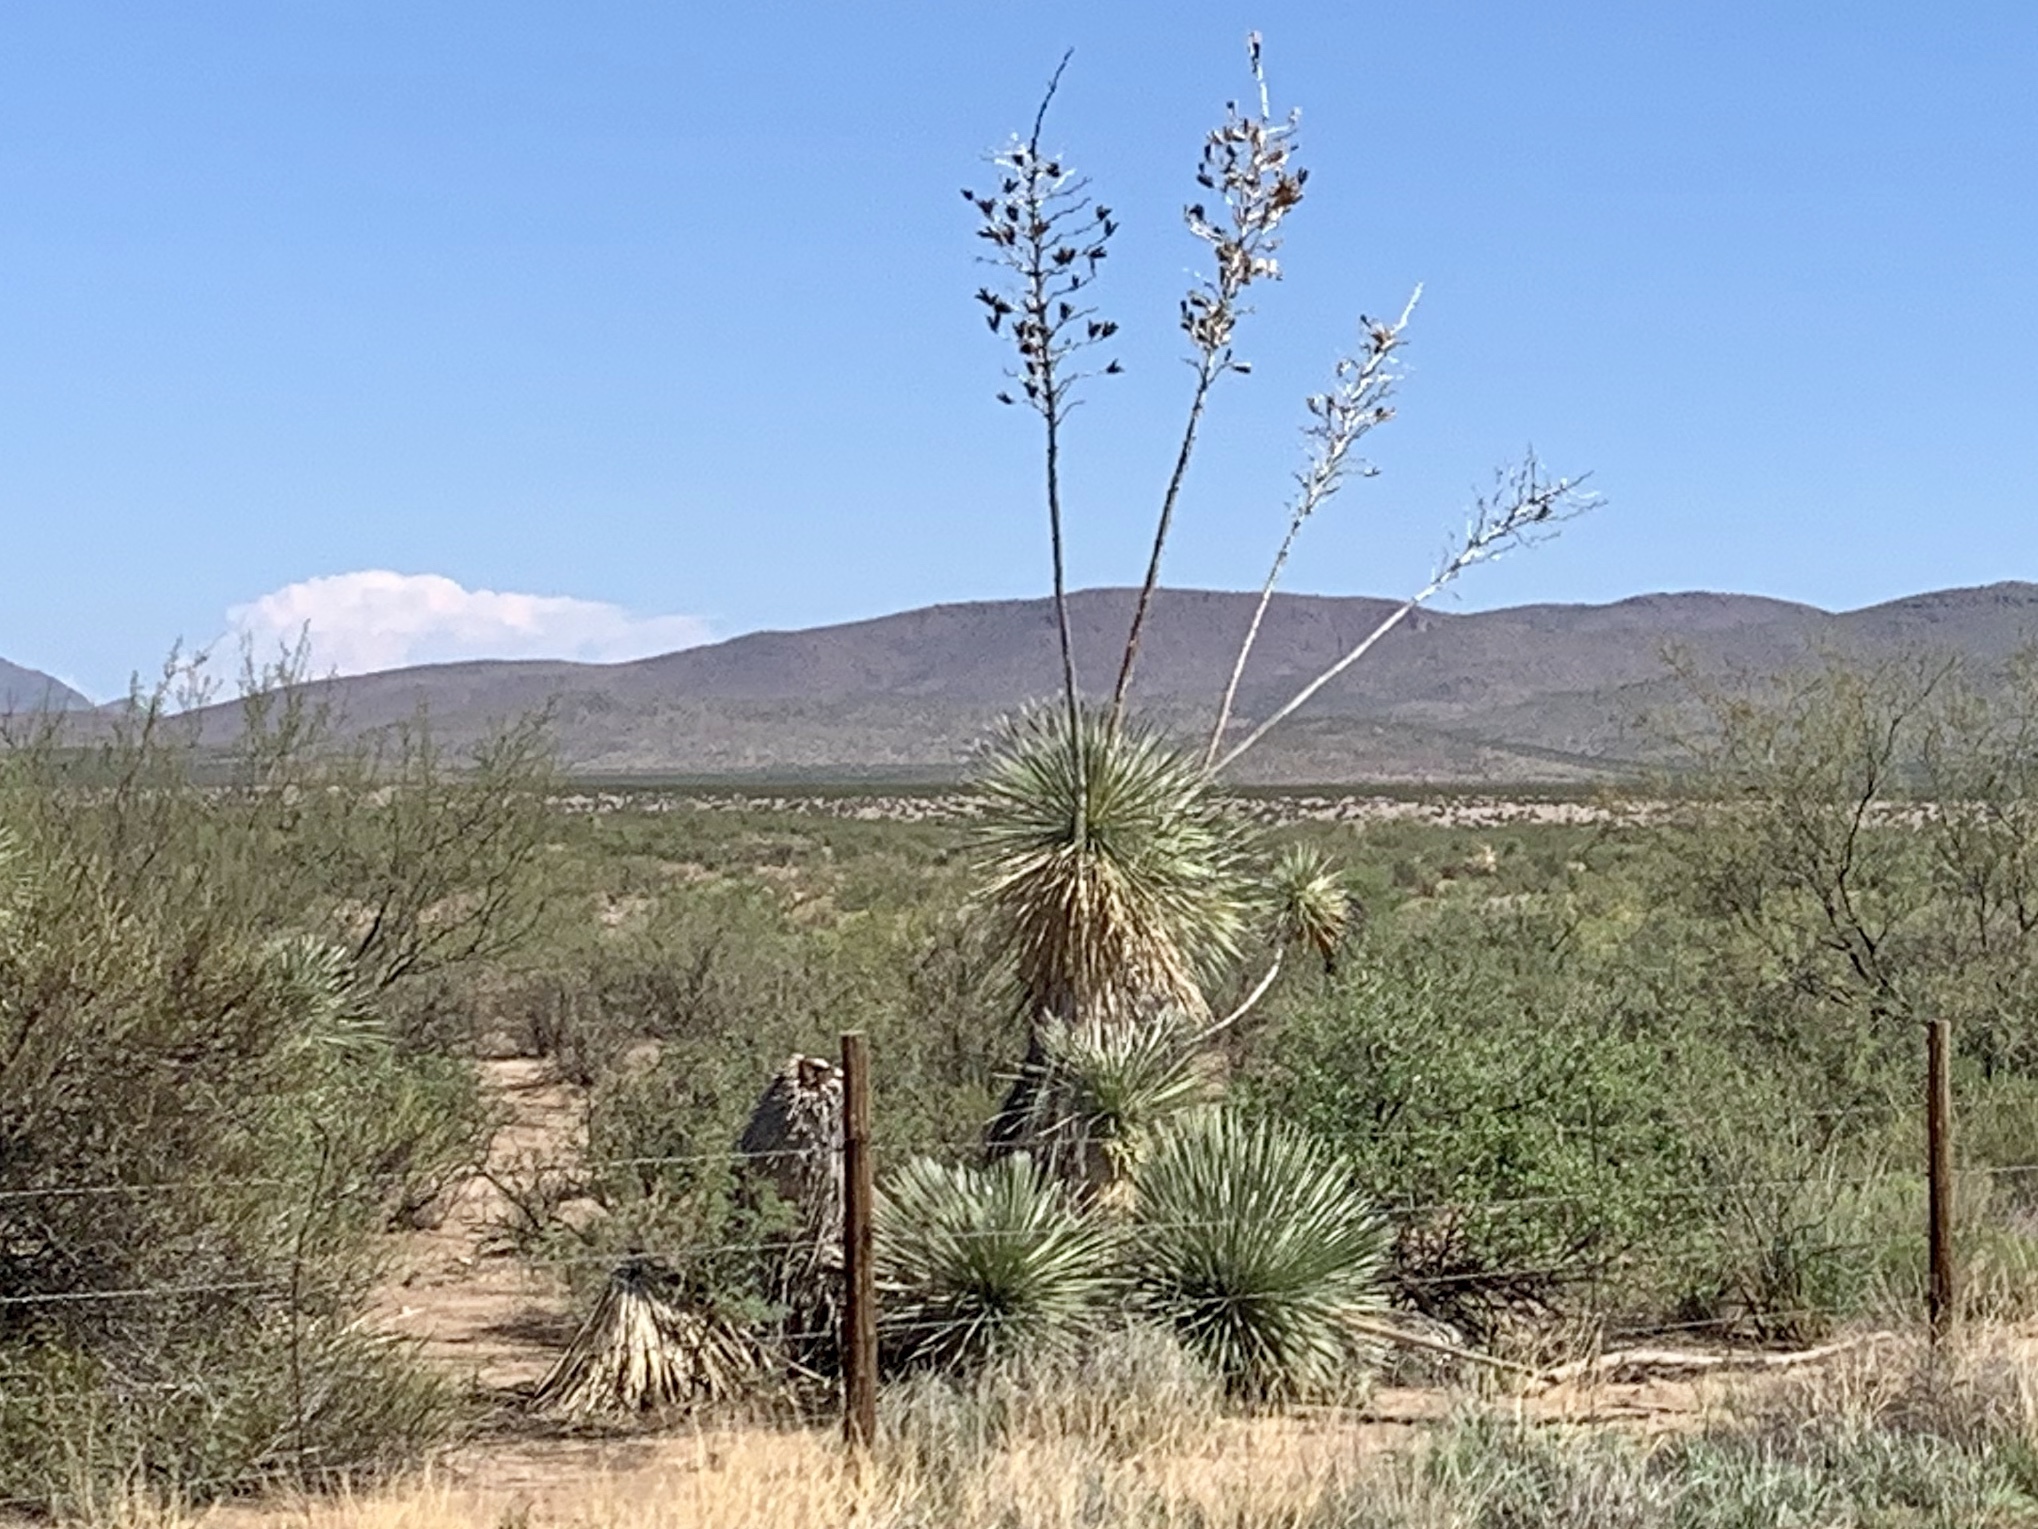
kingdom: Plantae
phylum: Tracheophyta
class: Liliopsida
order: Asparagales
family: Asparagaceae
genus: Yucca
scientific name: Yucca elata
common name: Palmella
